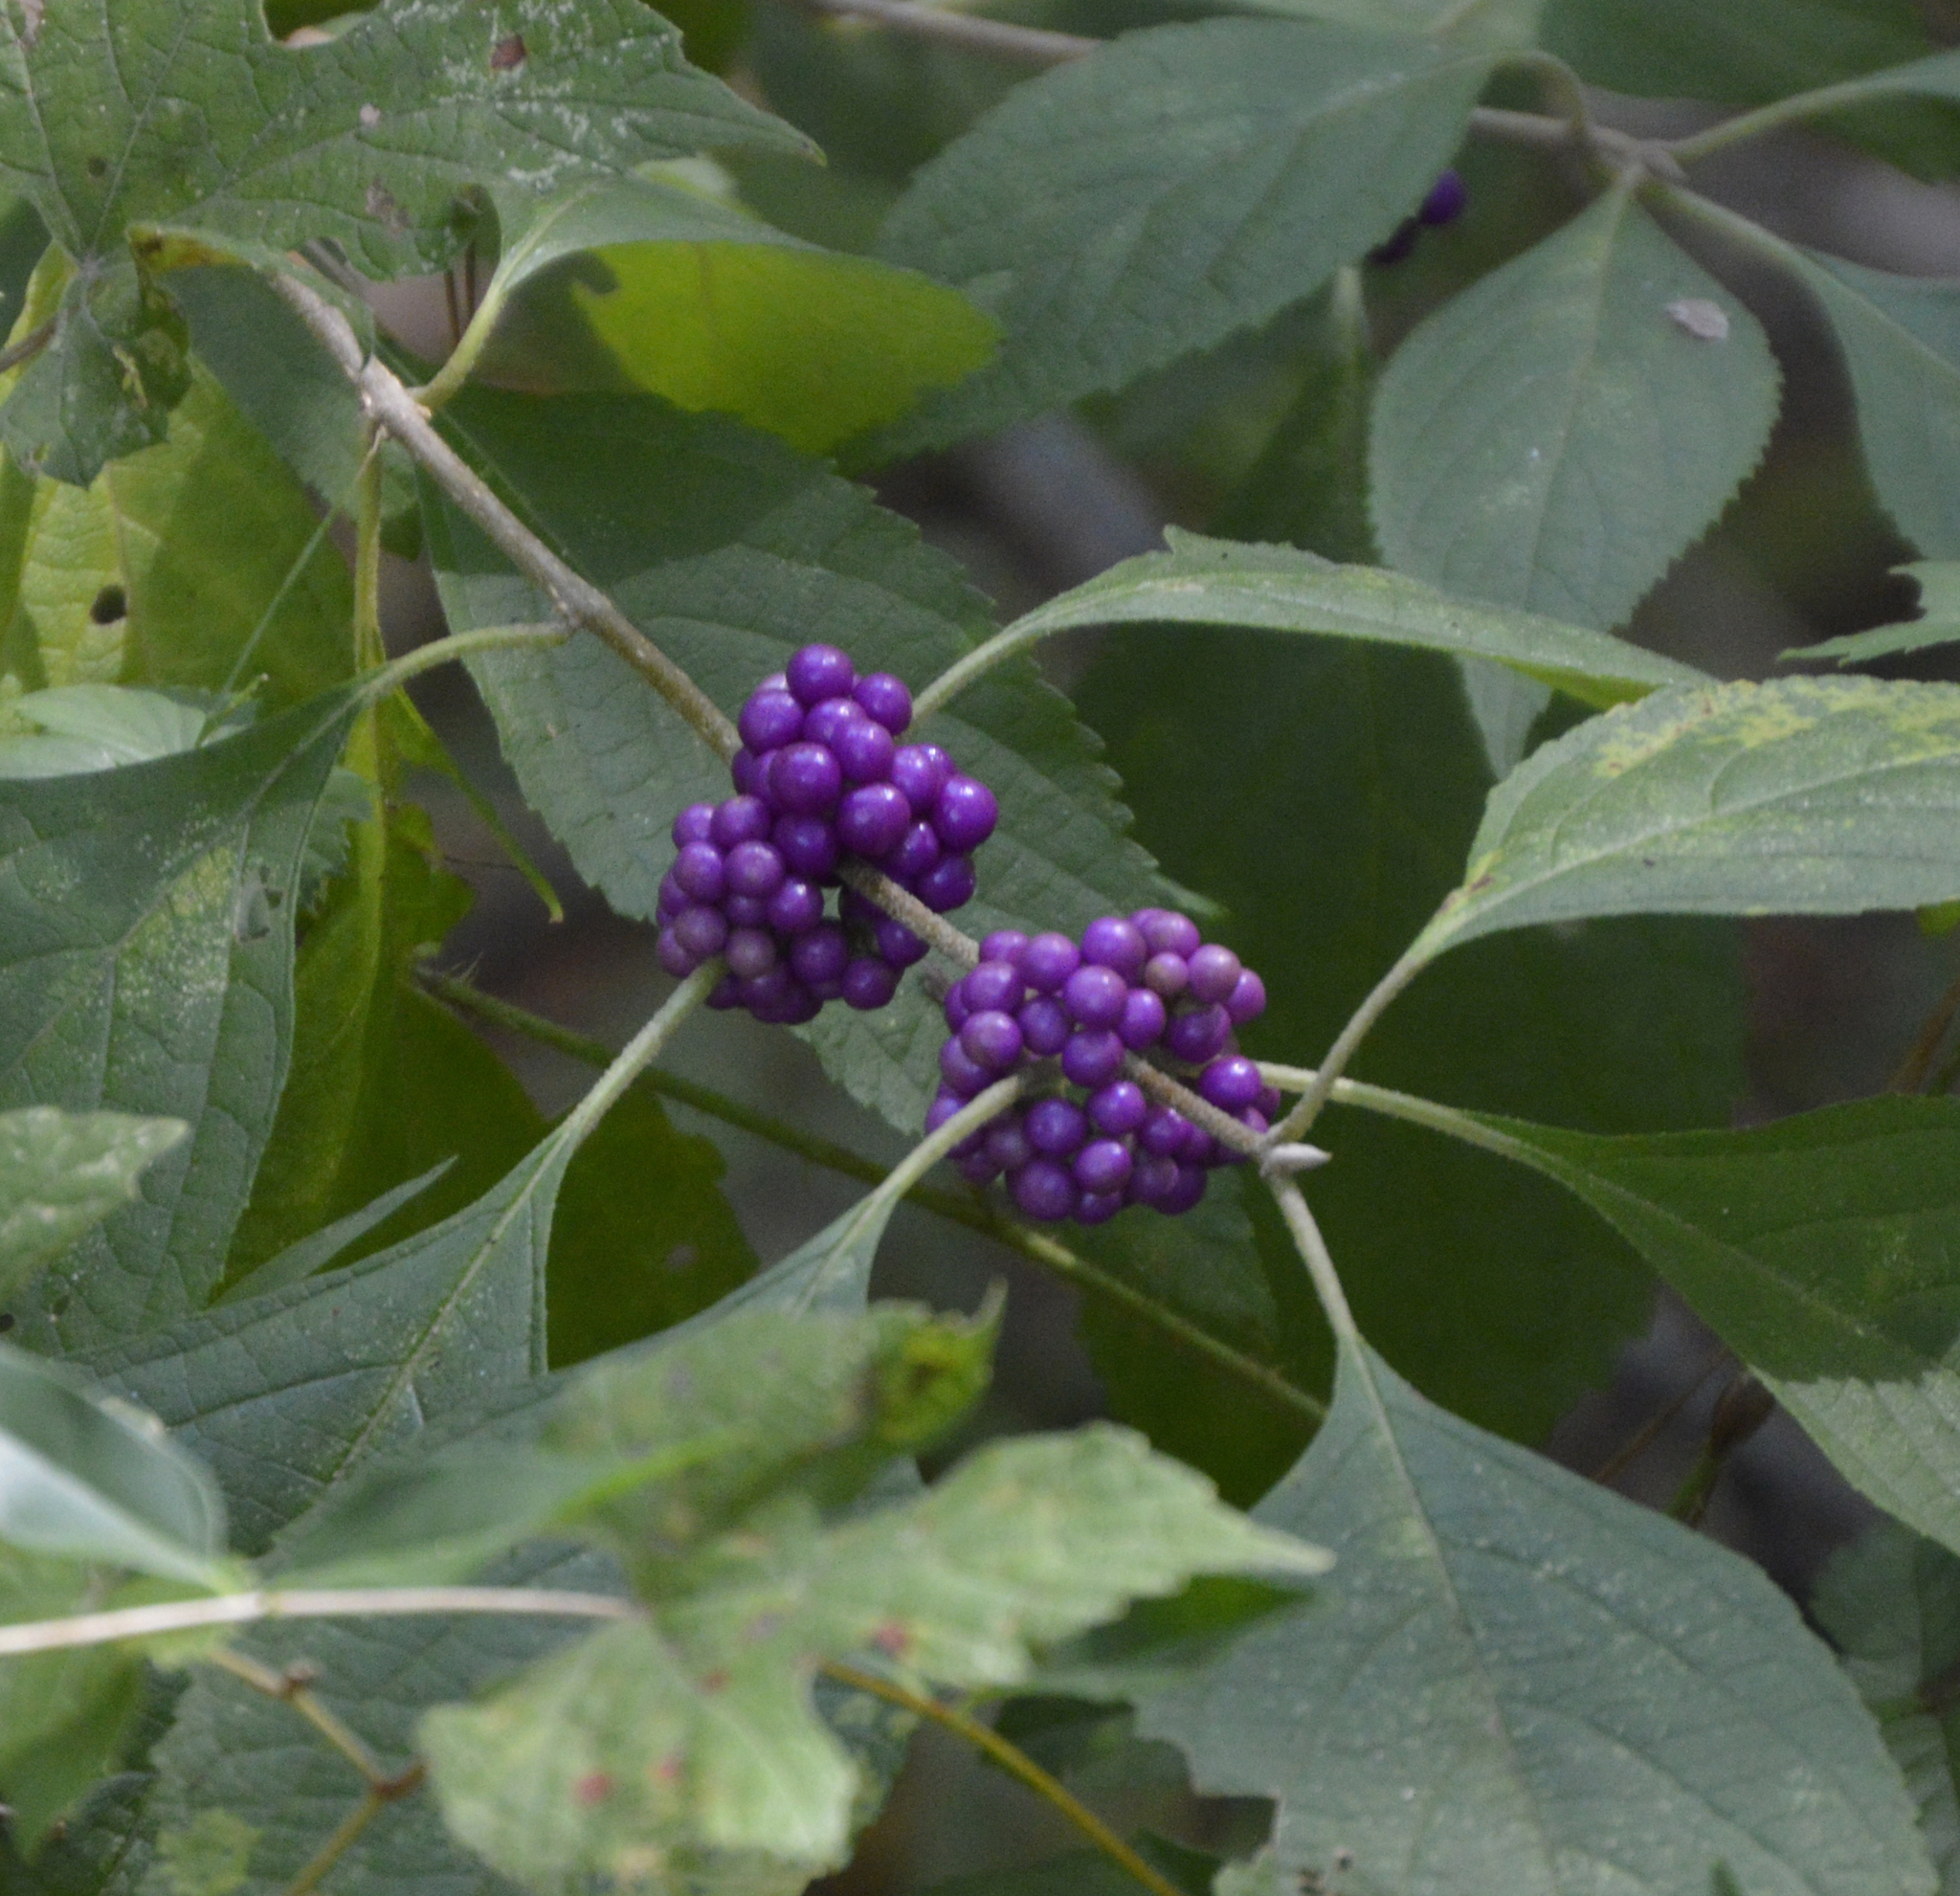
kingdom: Plantae
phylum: Tracheophyta
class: Magnoliopsida
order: Lamiales
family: Lamiaceae
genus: Callicarpa
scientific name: Callicarpa americana
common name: American beautyberry
